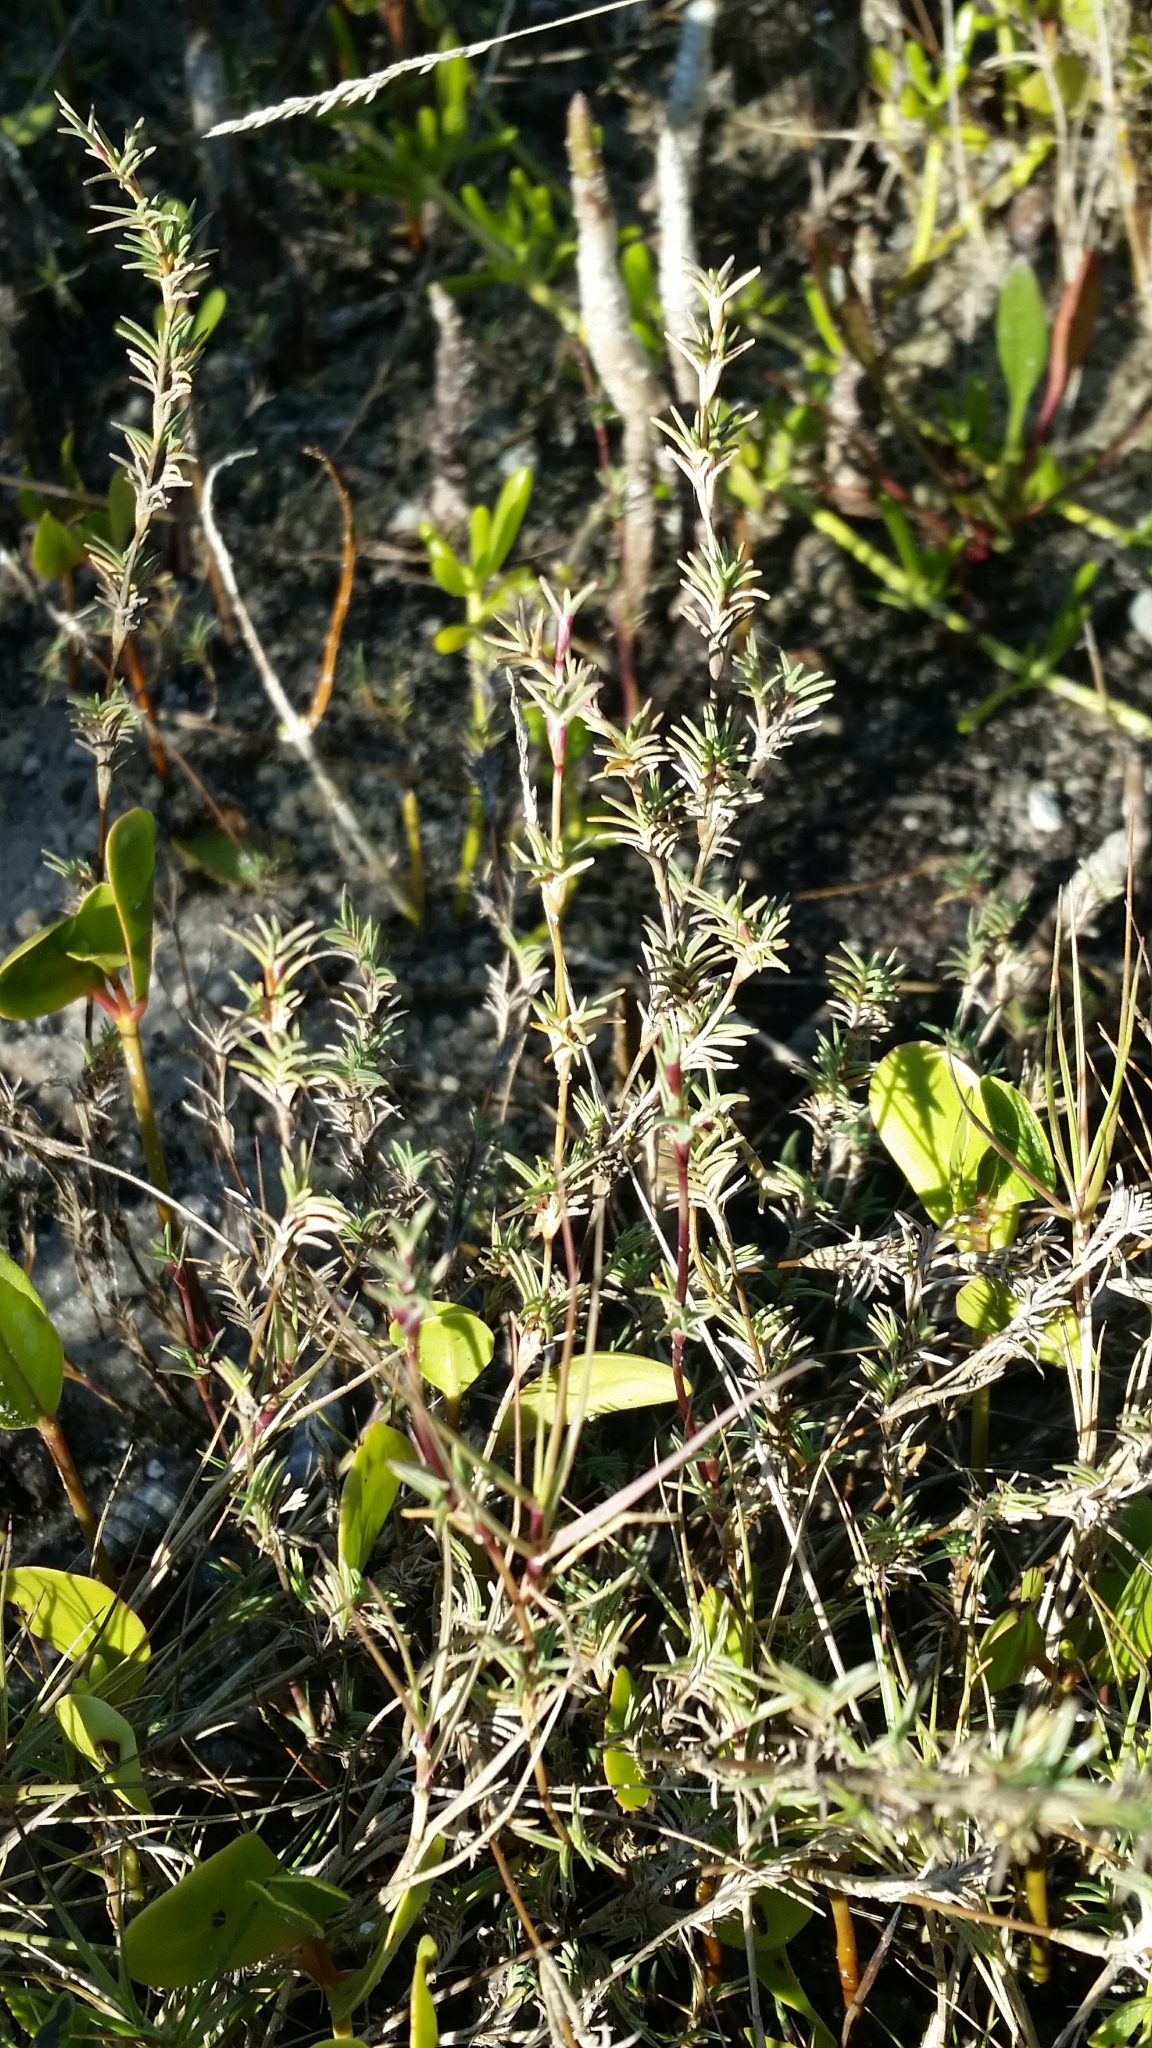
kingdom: Plantae
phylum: Tracheophyta
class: Liliopsida
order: Poales
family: Poaceae
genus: Distichlis
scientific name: Distichlis littoralis
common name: Shore grass
